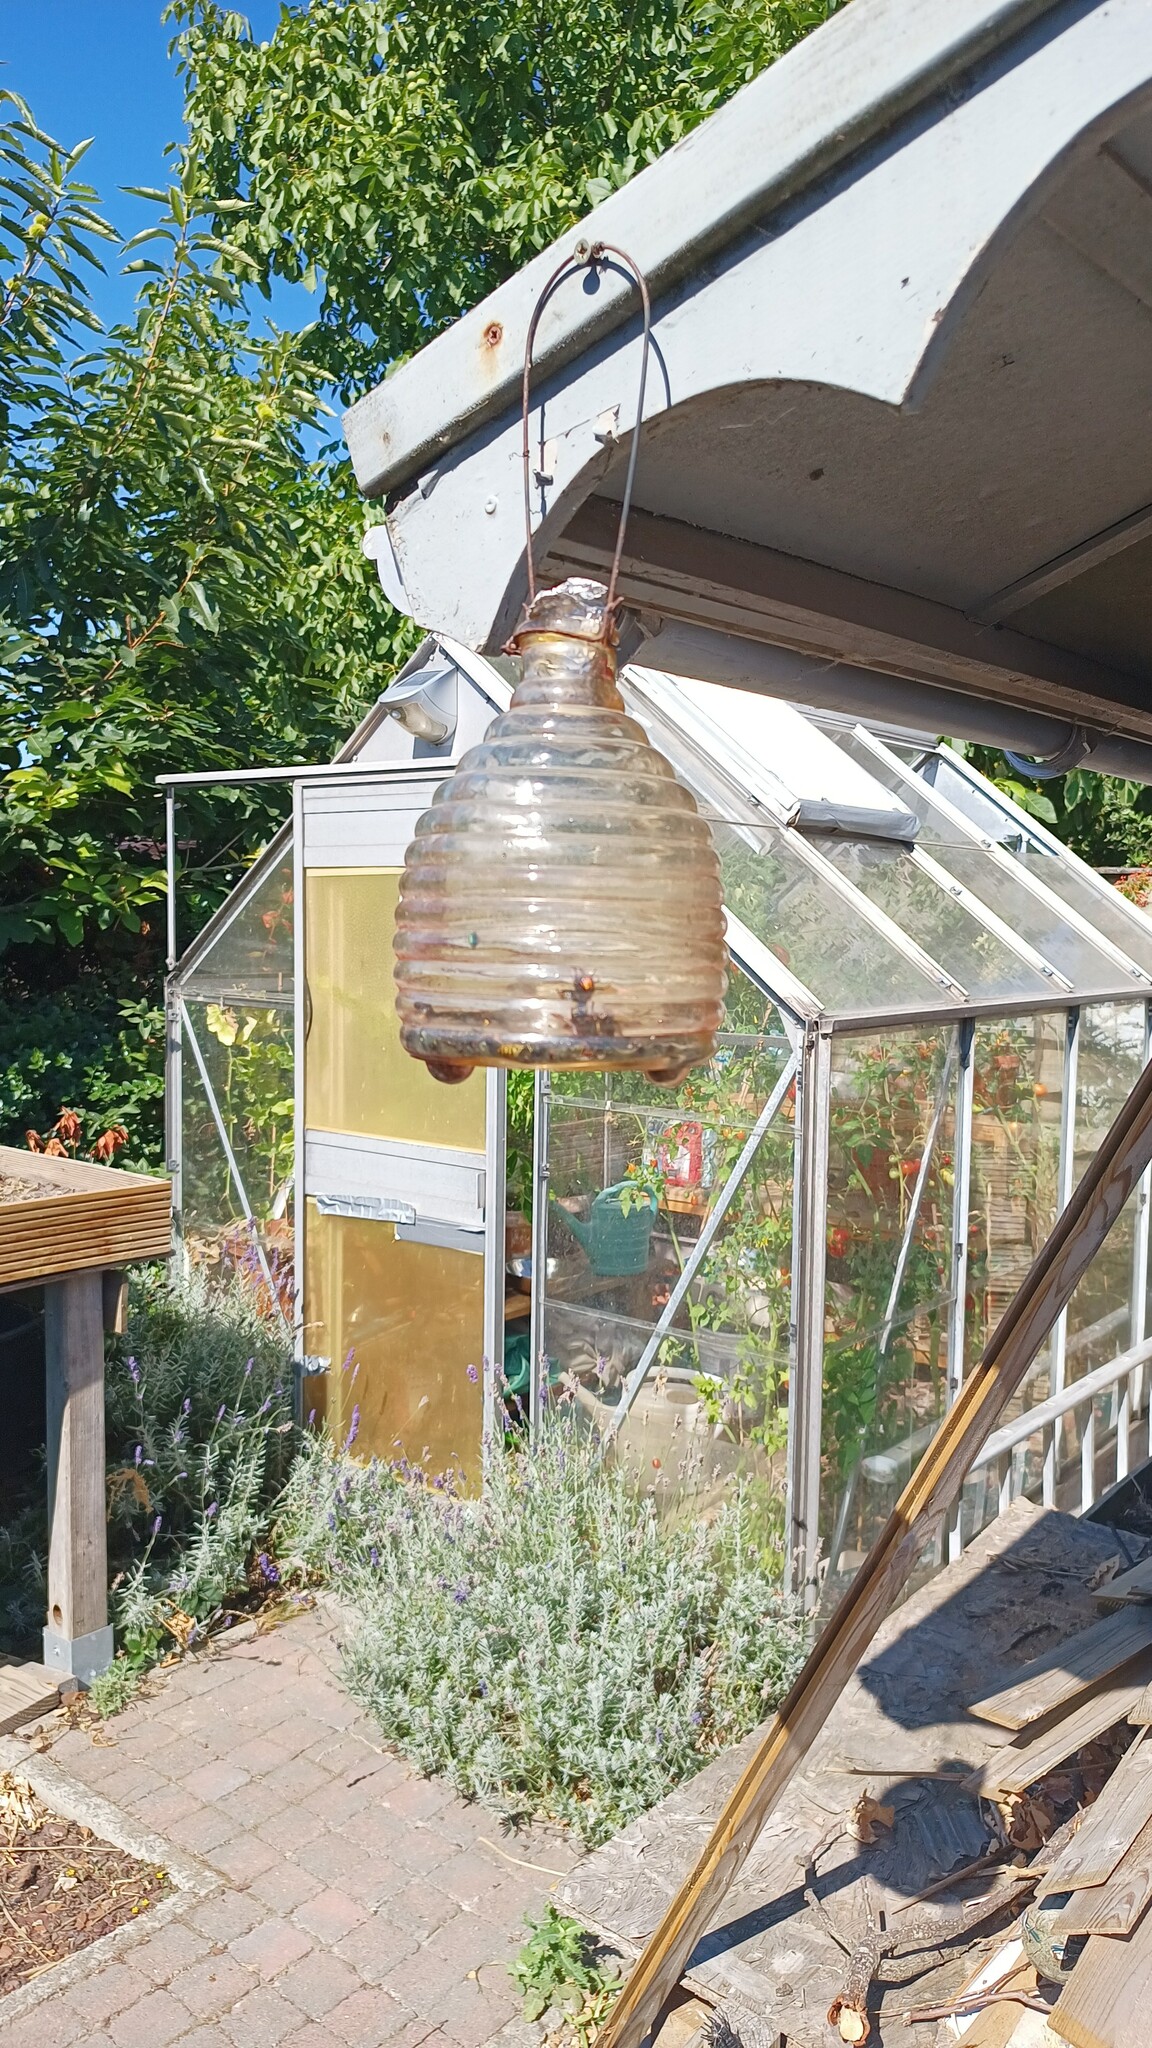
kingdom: Animalia
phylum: Arthropoda
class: Insecta
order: Hymenoptera
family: Vespidae
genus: Vespa
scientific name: Vespa crabro
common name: Hornet
